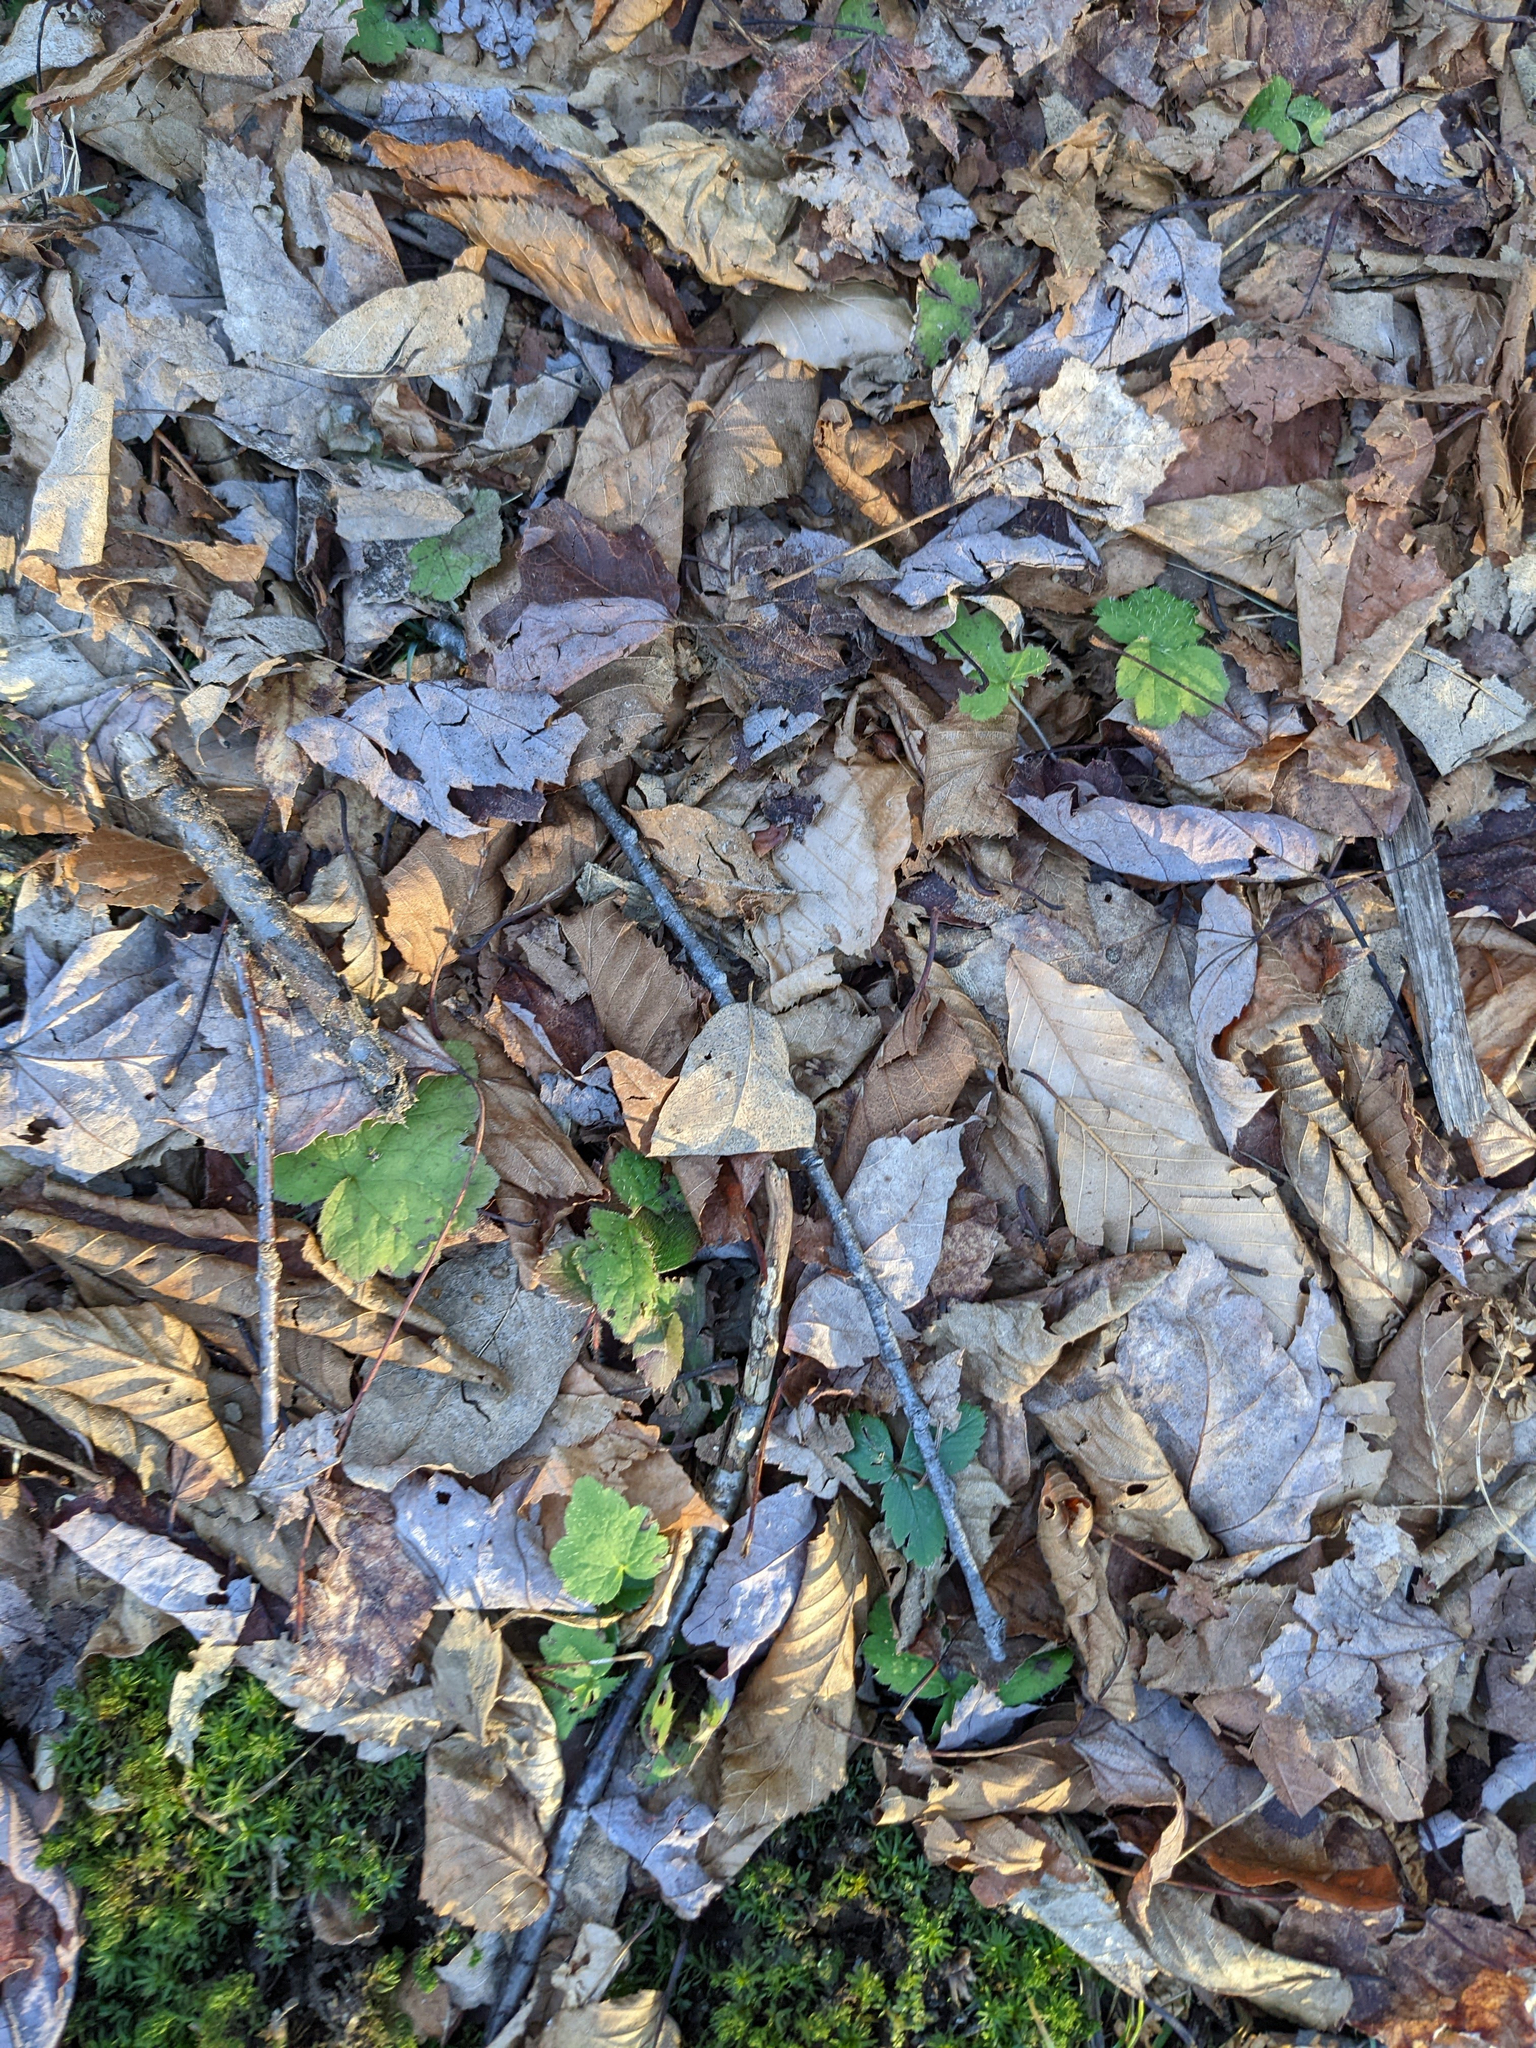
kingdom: Plantae
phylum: Tracheophyta
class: Magnoliopsida
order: Saxifragales
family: Saxifragaceae
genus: Tiarella
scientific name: Tiarella stolonifera
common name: Stoloniferous foamflower
